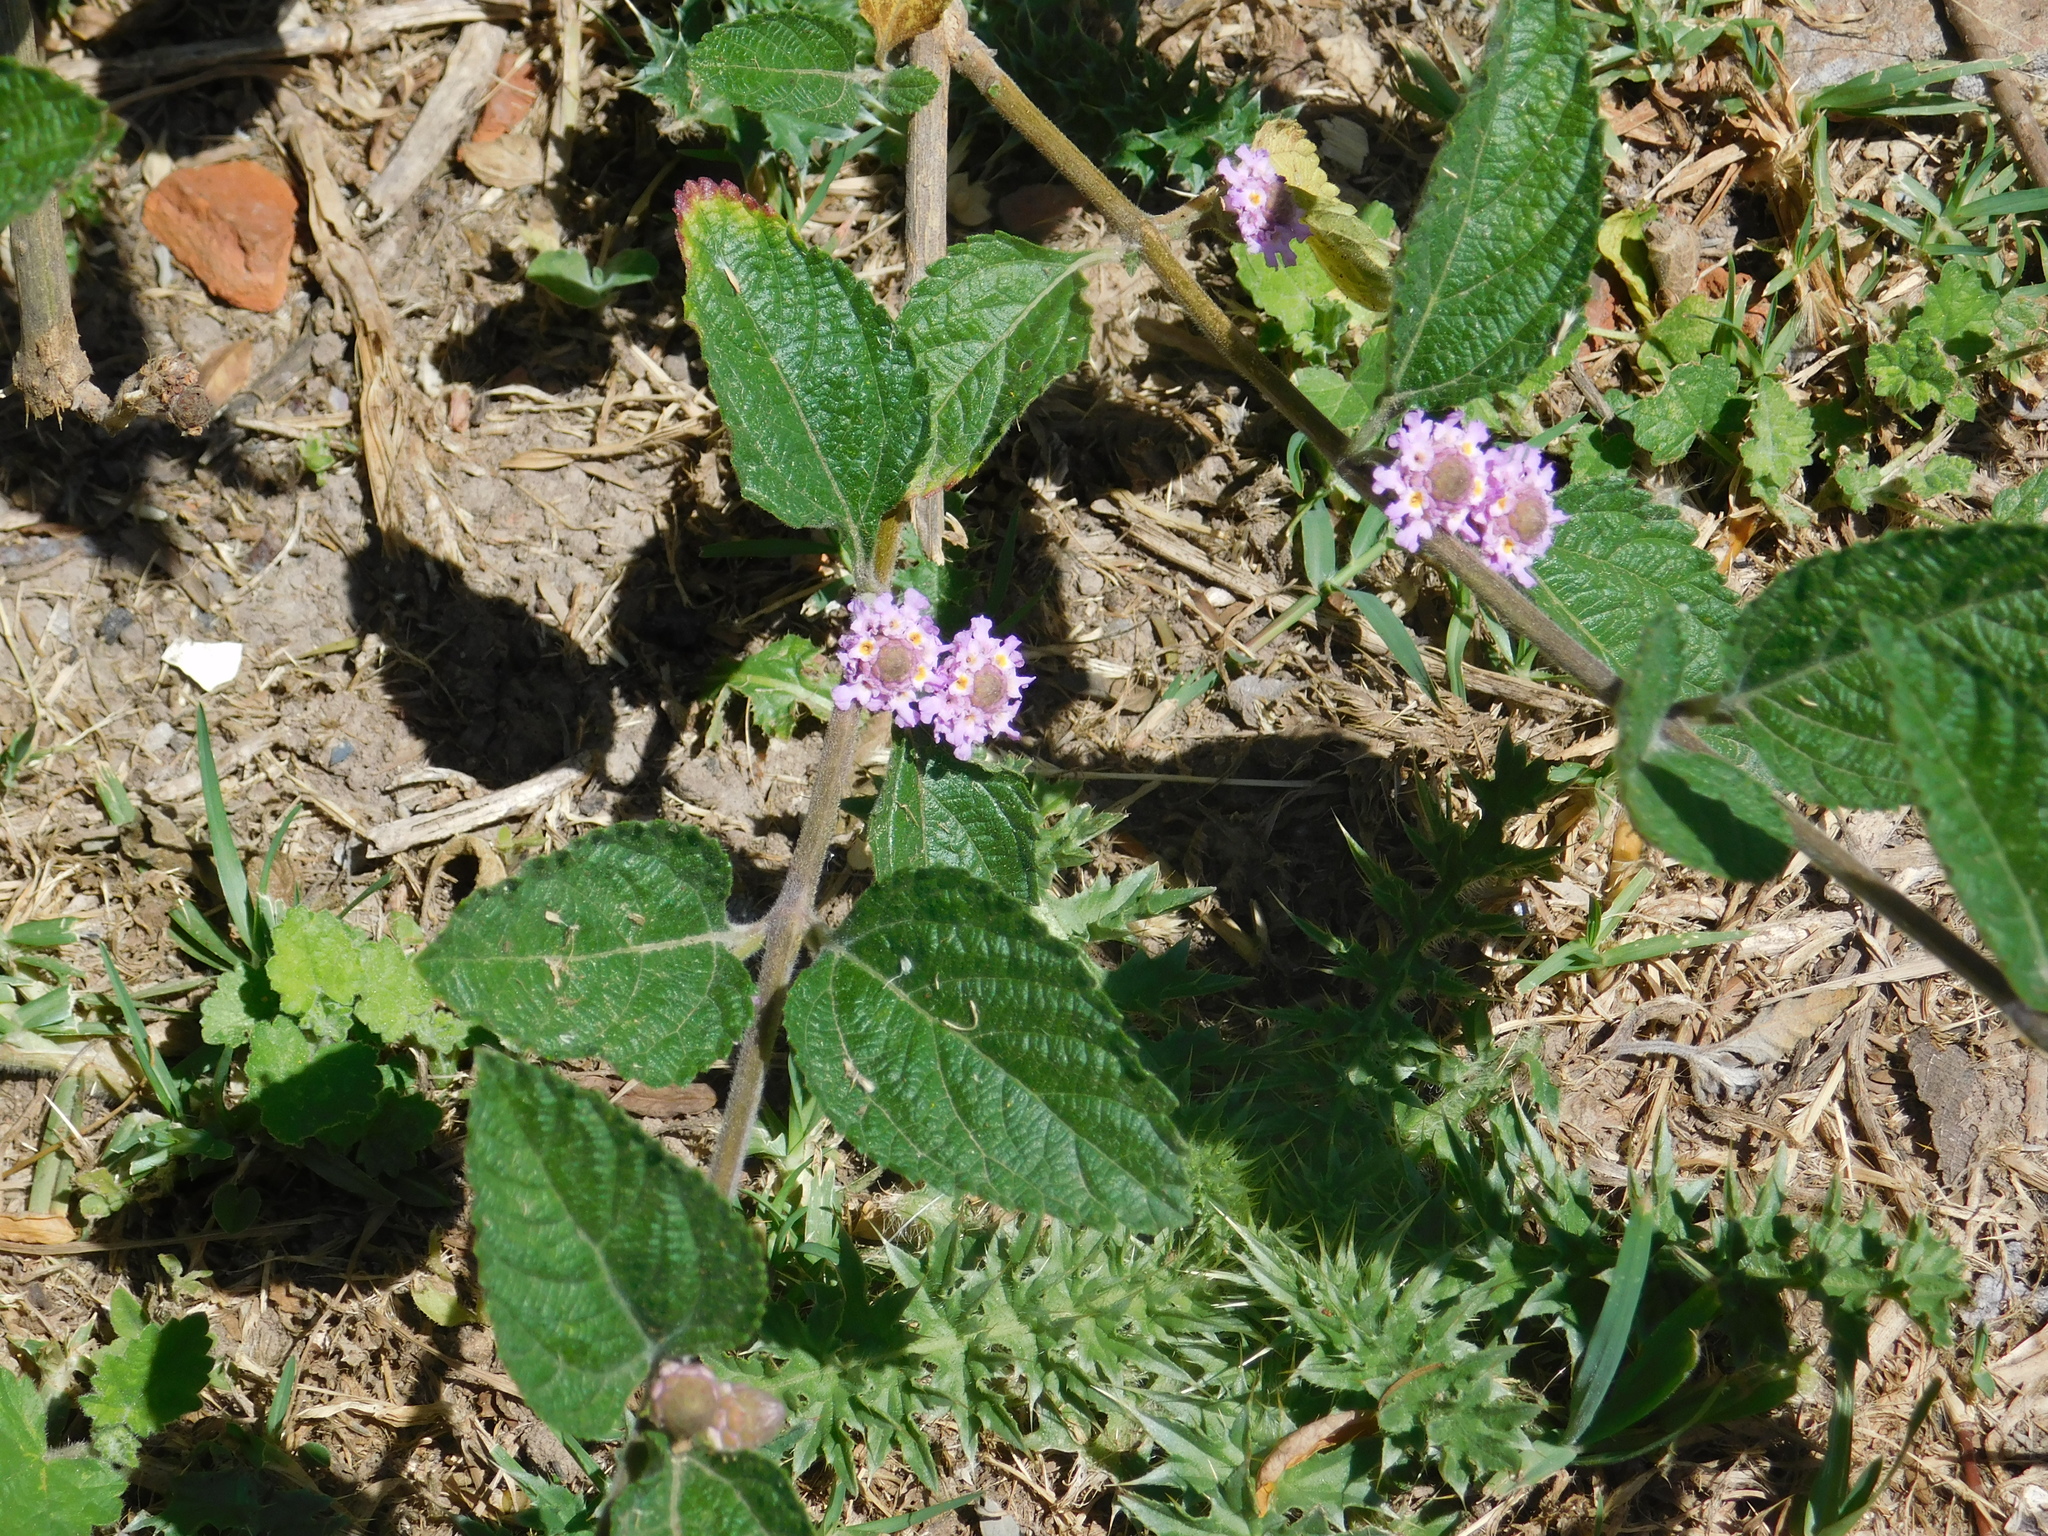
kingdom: Plantae
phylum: Tracheophyta
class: Magnoliopsida
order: Lamiales
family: Verbenaceae
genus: Lippia
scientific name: Lippia alba
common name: Bushy matgrass
